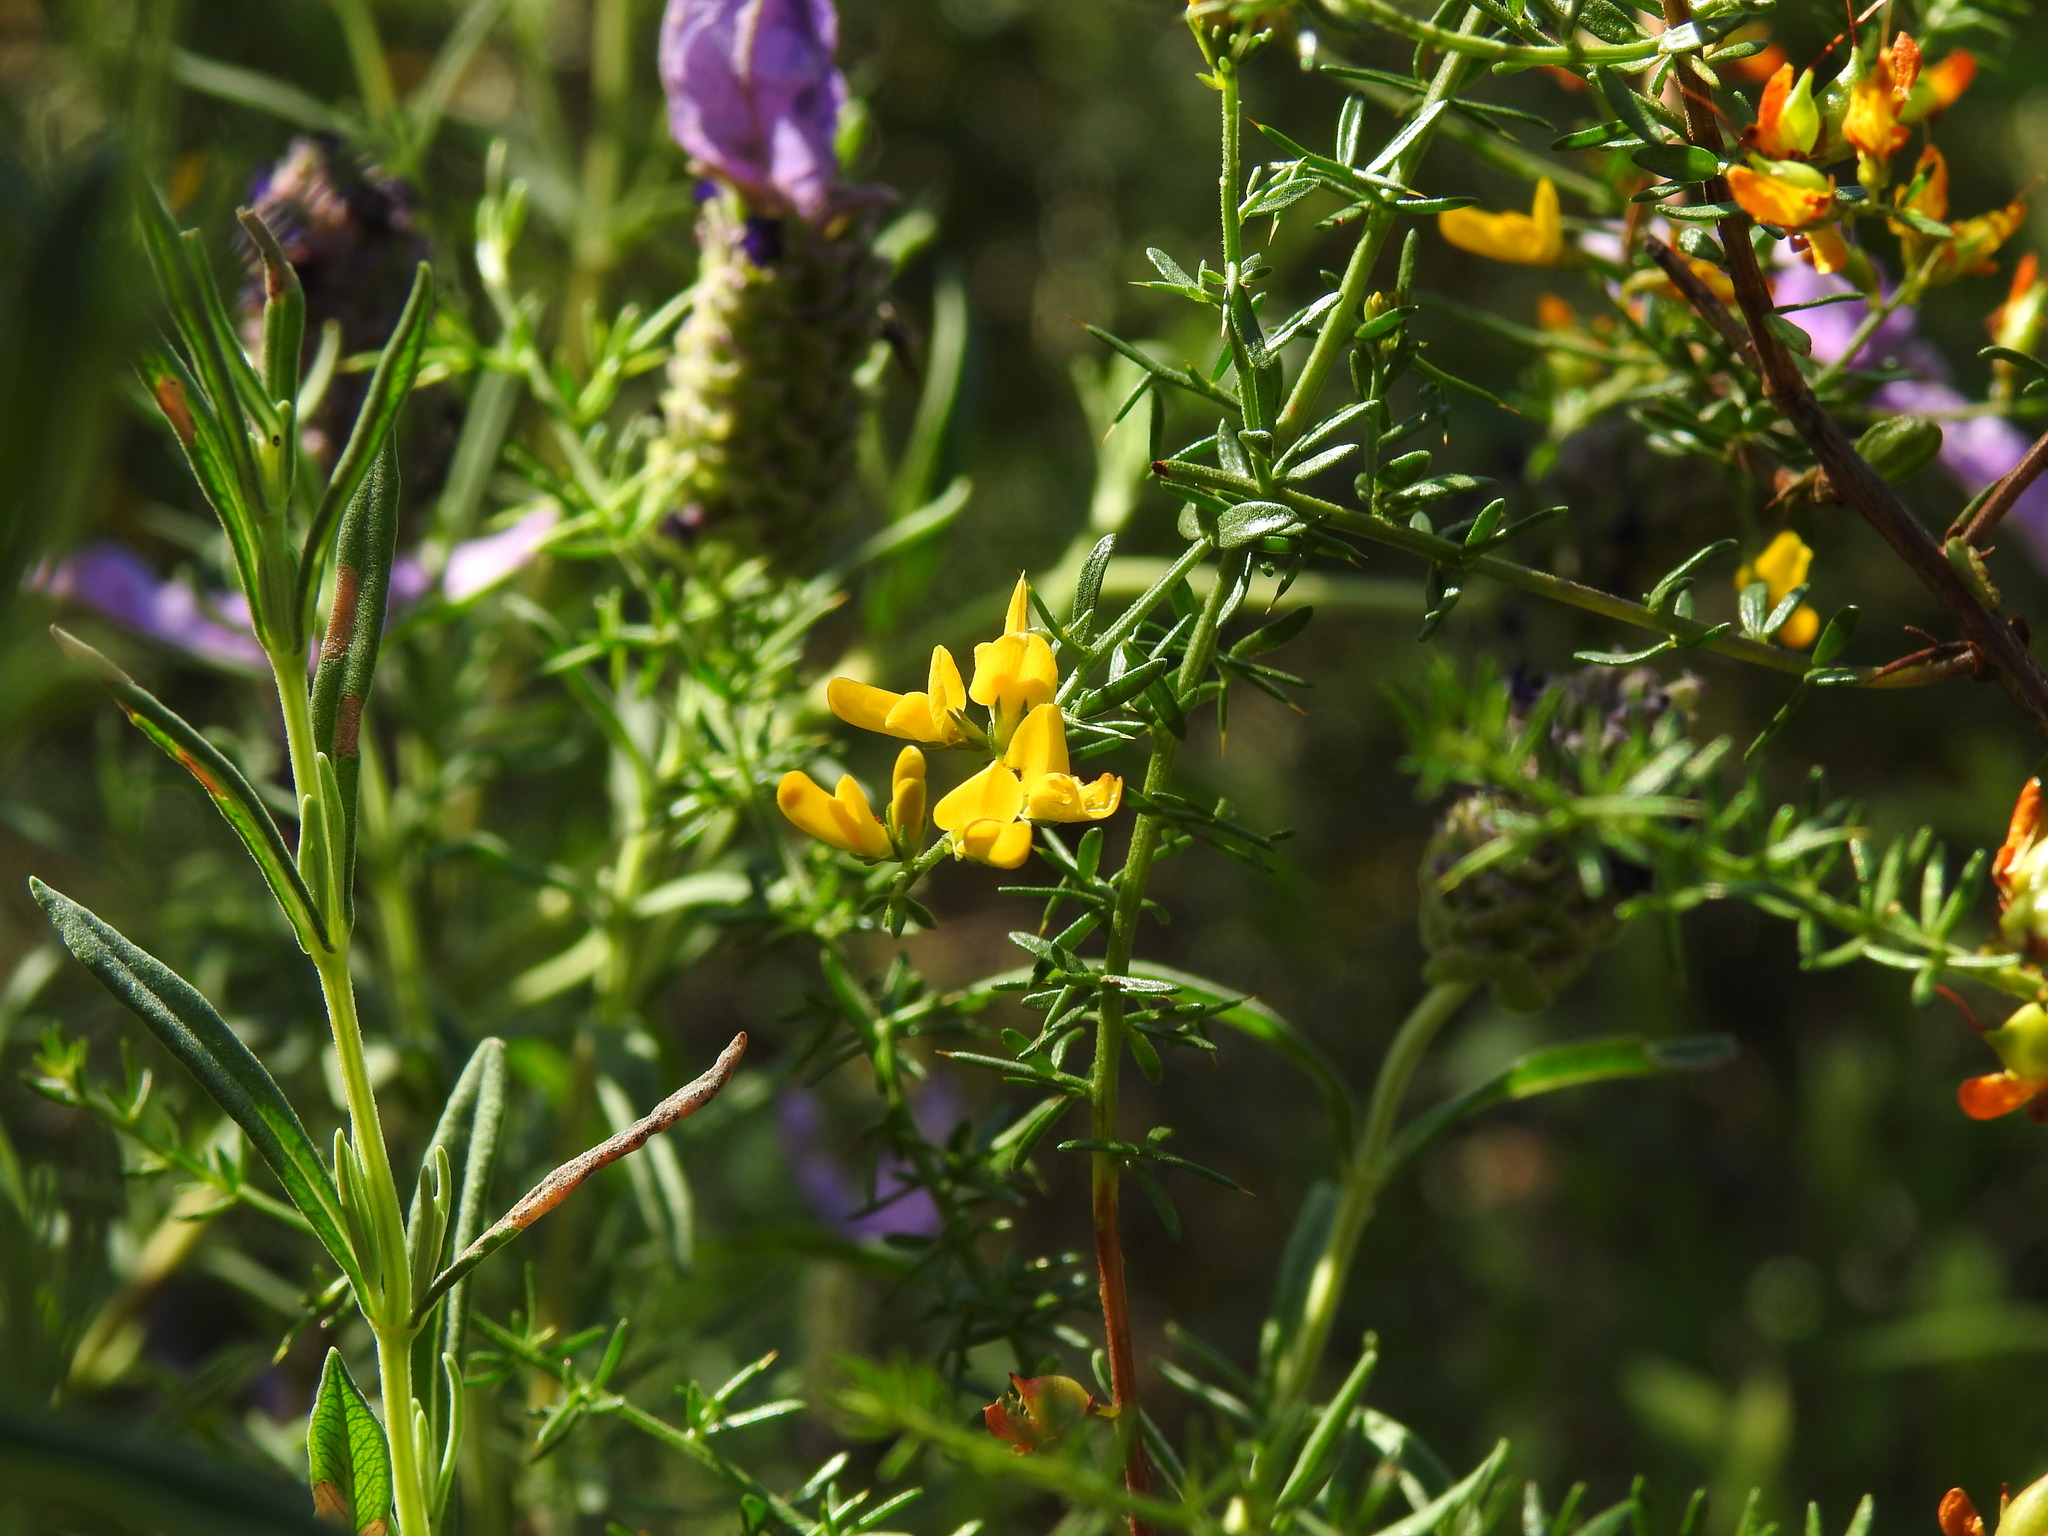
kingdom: Plantae
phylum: Tracheophyta
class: Magnoliopsida
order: Fabales
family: Fabaceae
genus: Genista
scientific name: Genista triacanthos
